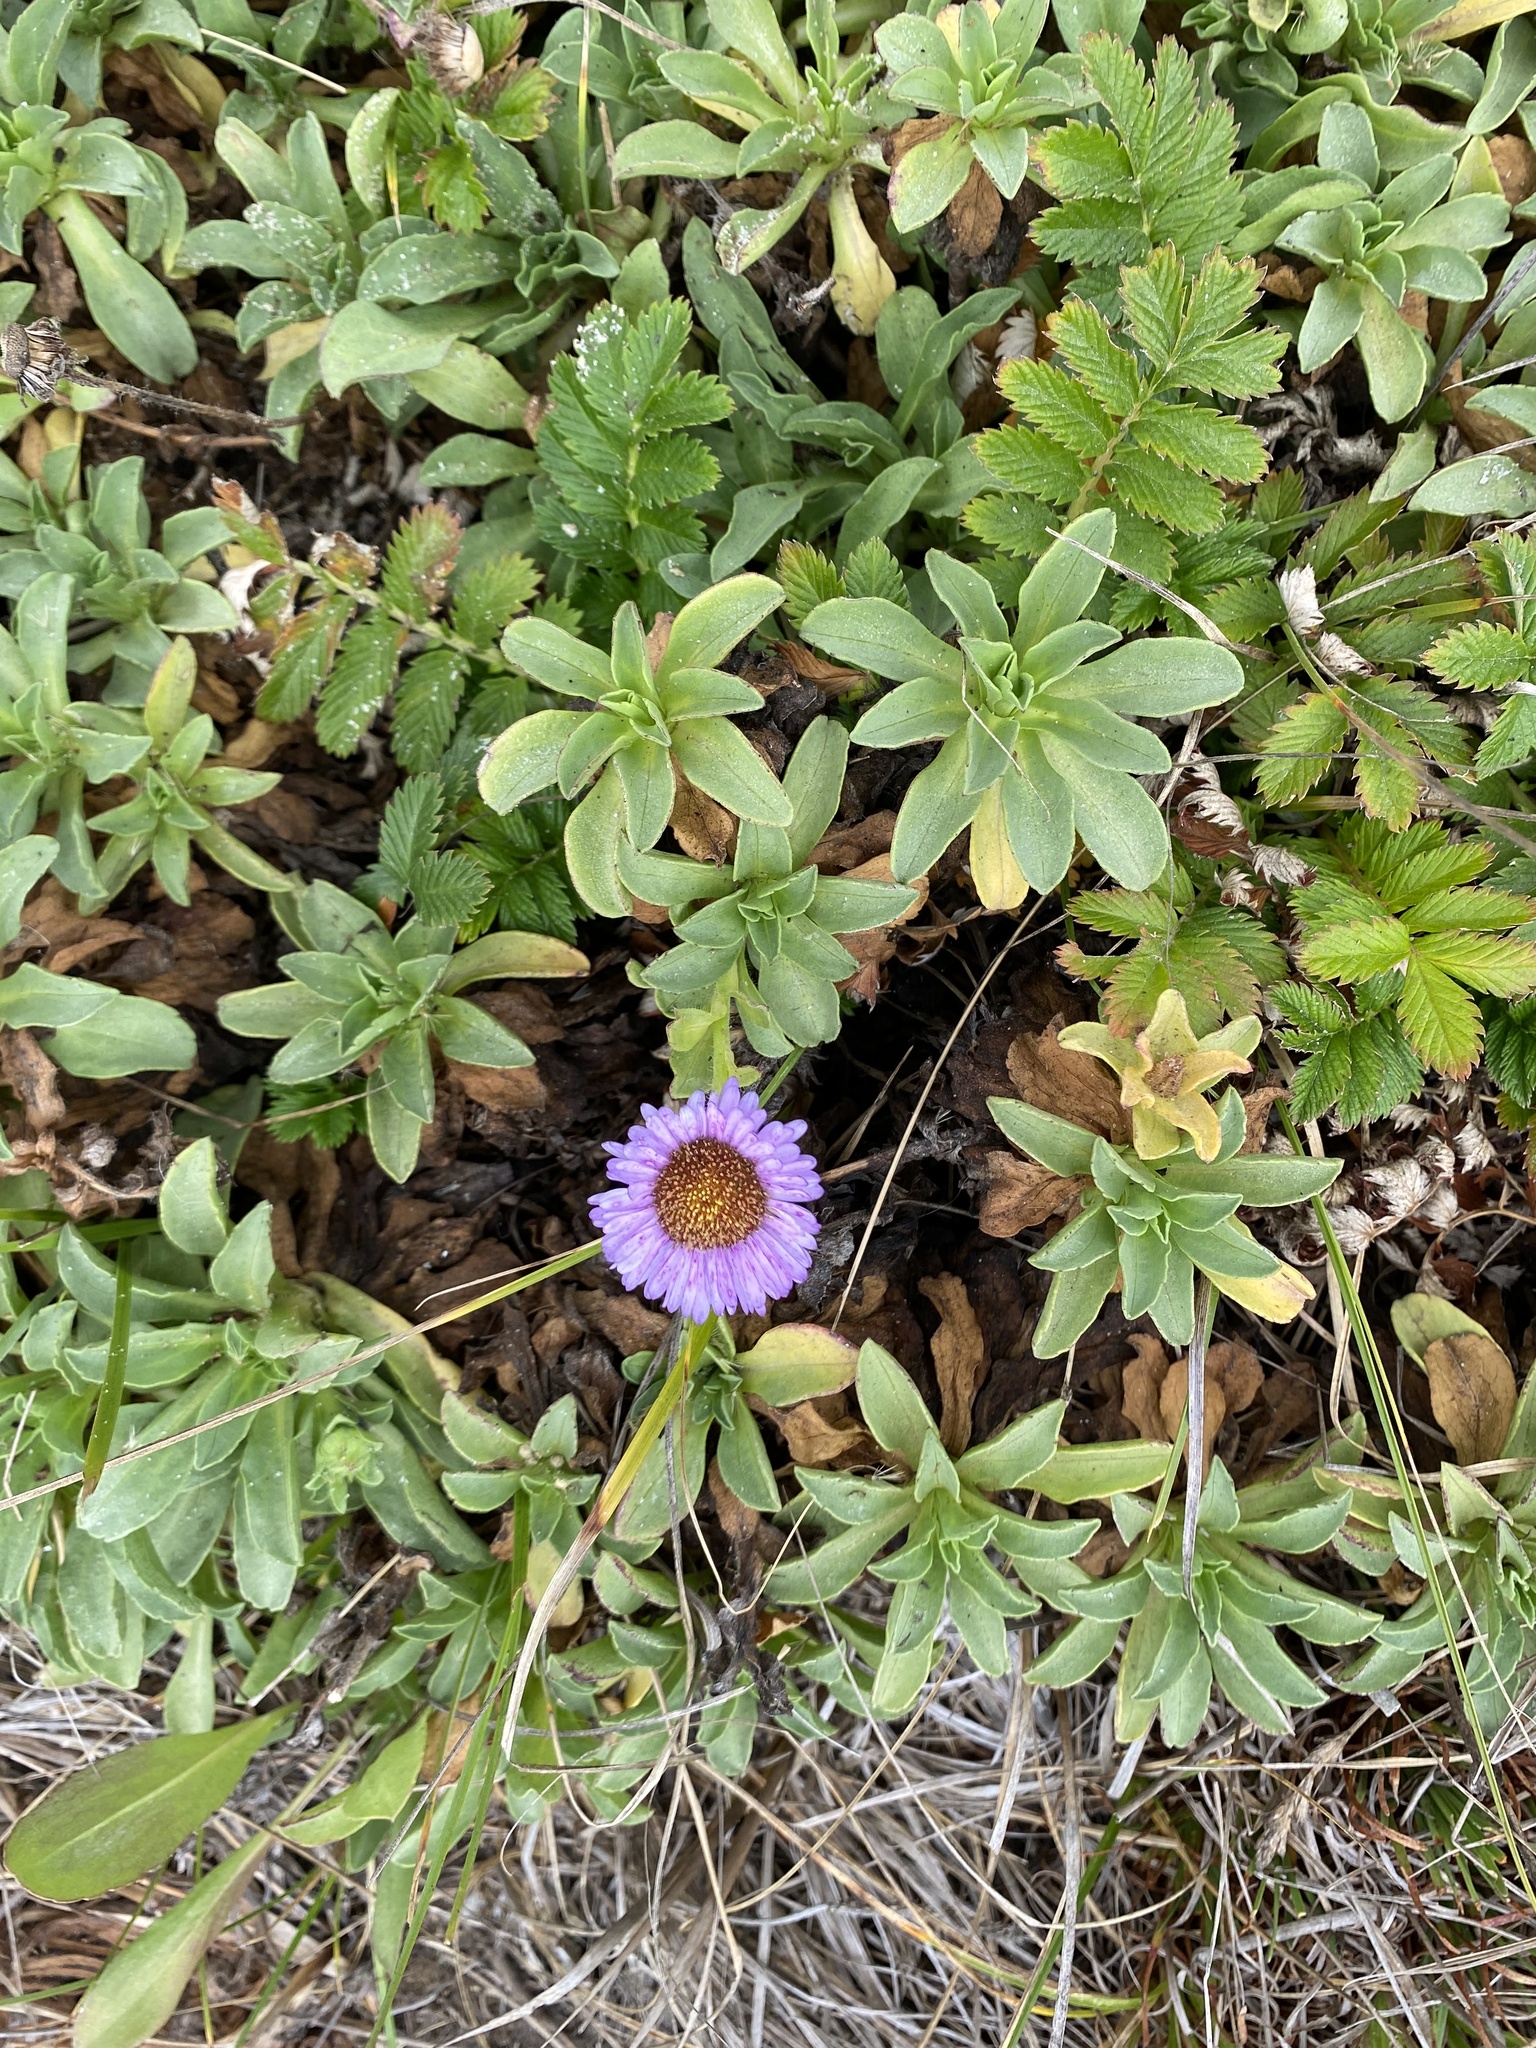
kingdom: Plantae
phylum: Tracheophyta
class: Magnoliopsida
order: Asterales
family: Asteraceae
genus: Erigeron
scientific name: Erigeron glaucus
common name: Seaside daisy
